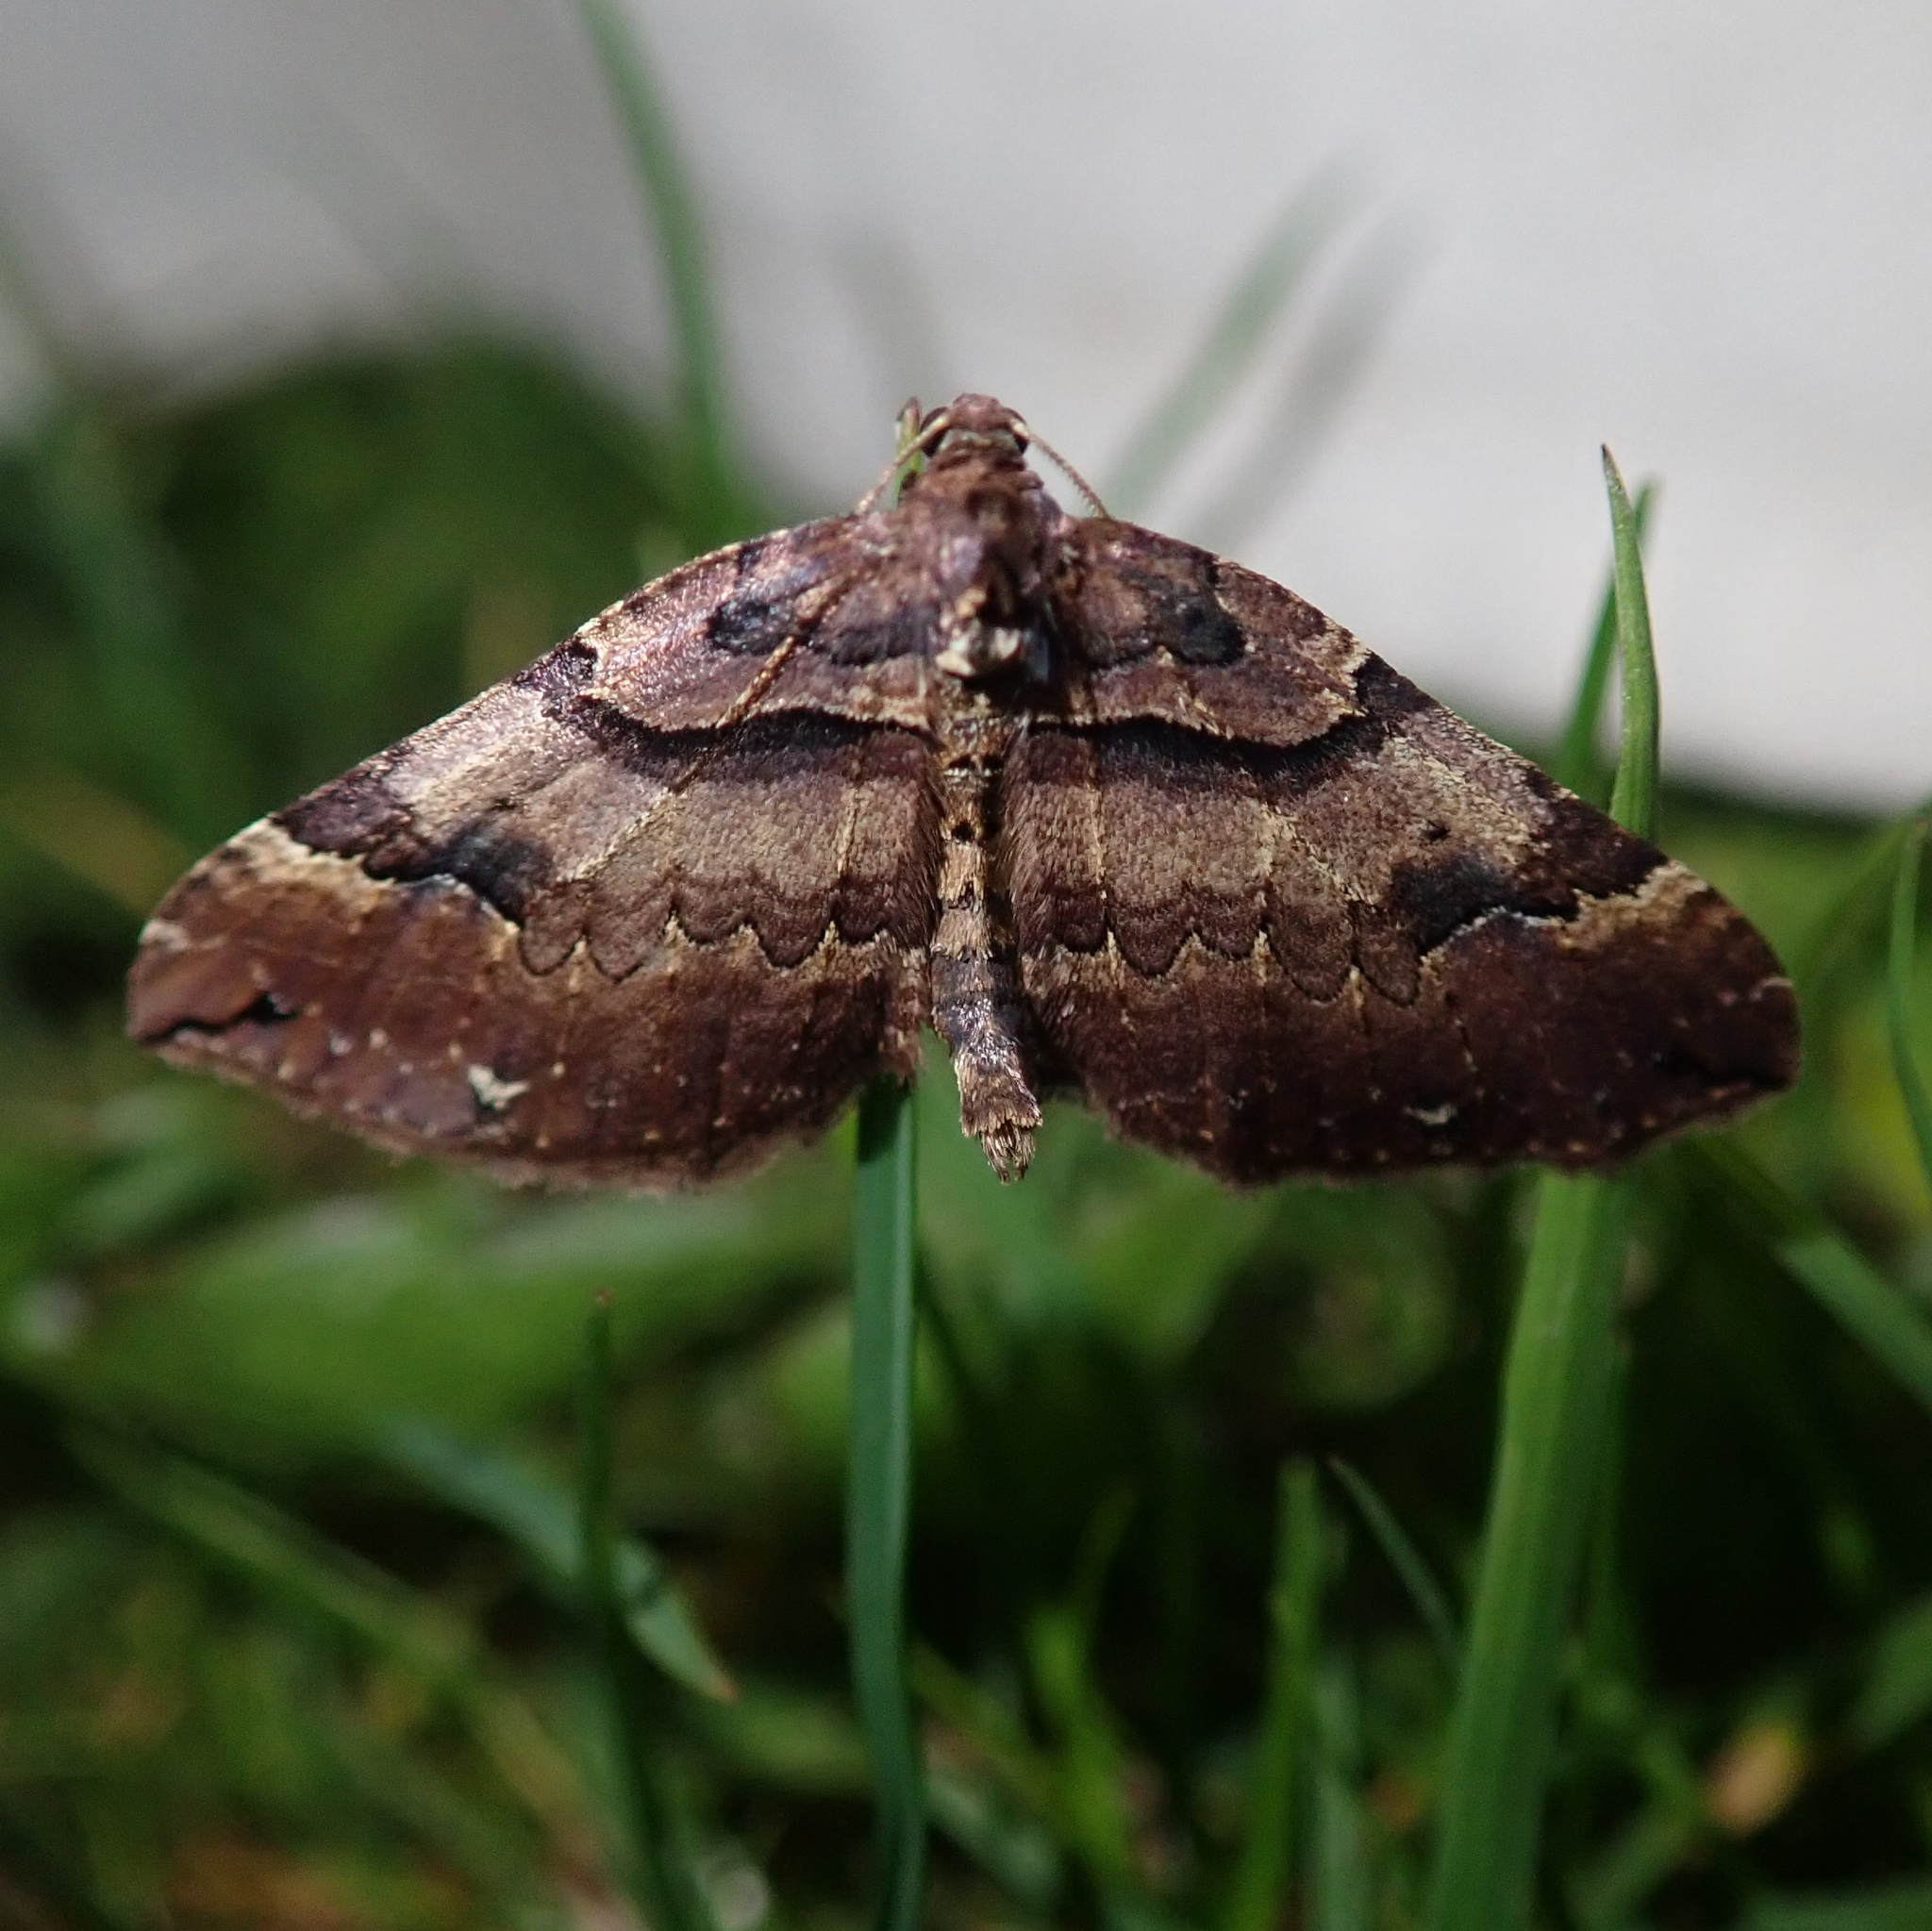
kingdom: Animalia
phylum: Arthropoda
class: Insecta
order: Lepidoptera
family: Geometridae
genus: Anticlea
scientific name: Anticlea badiata
